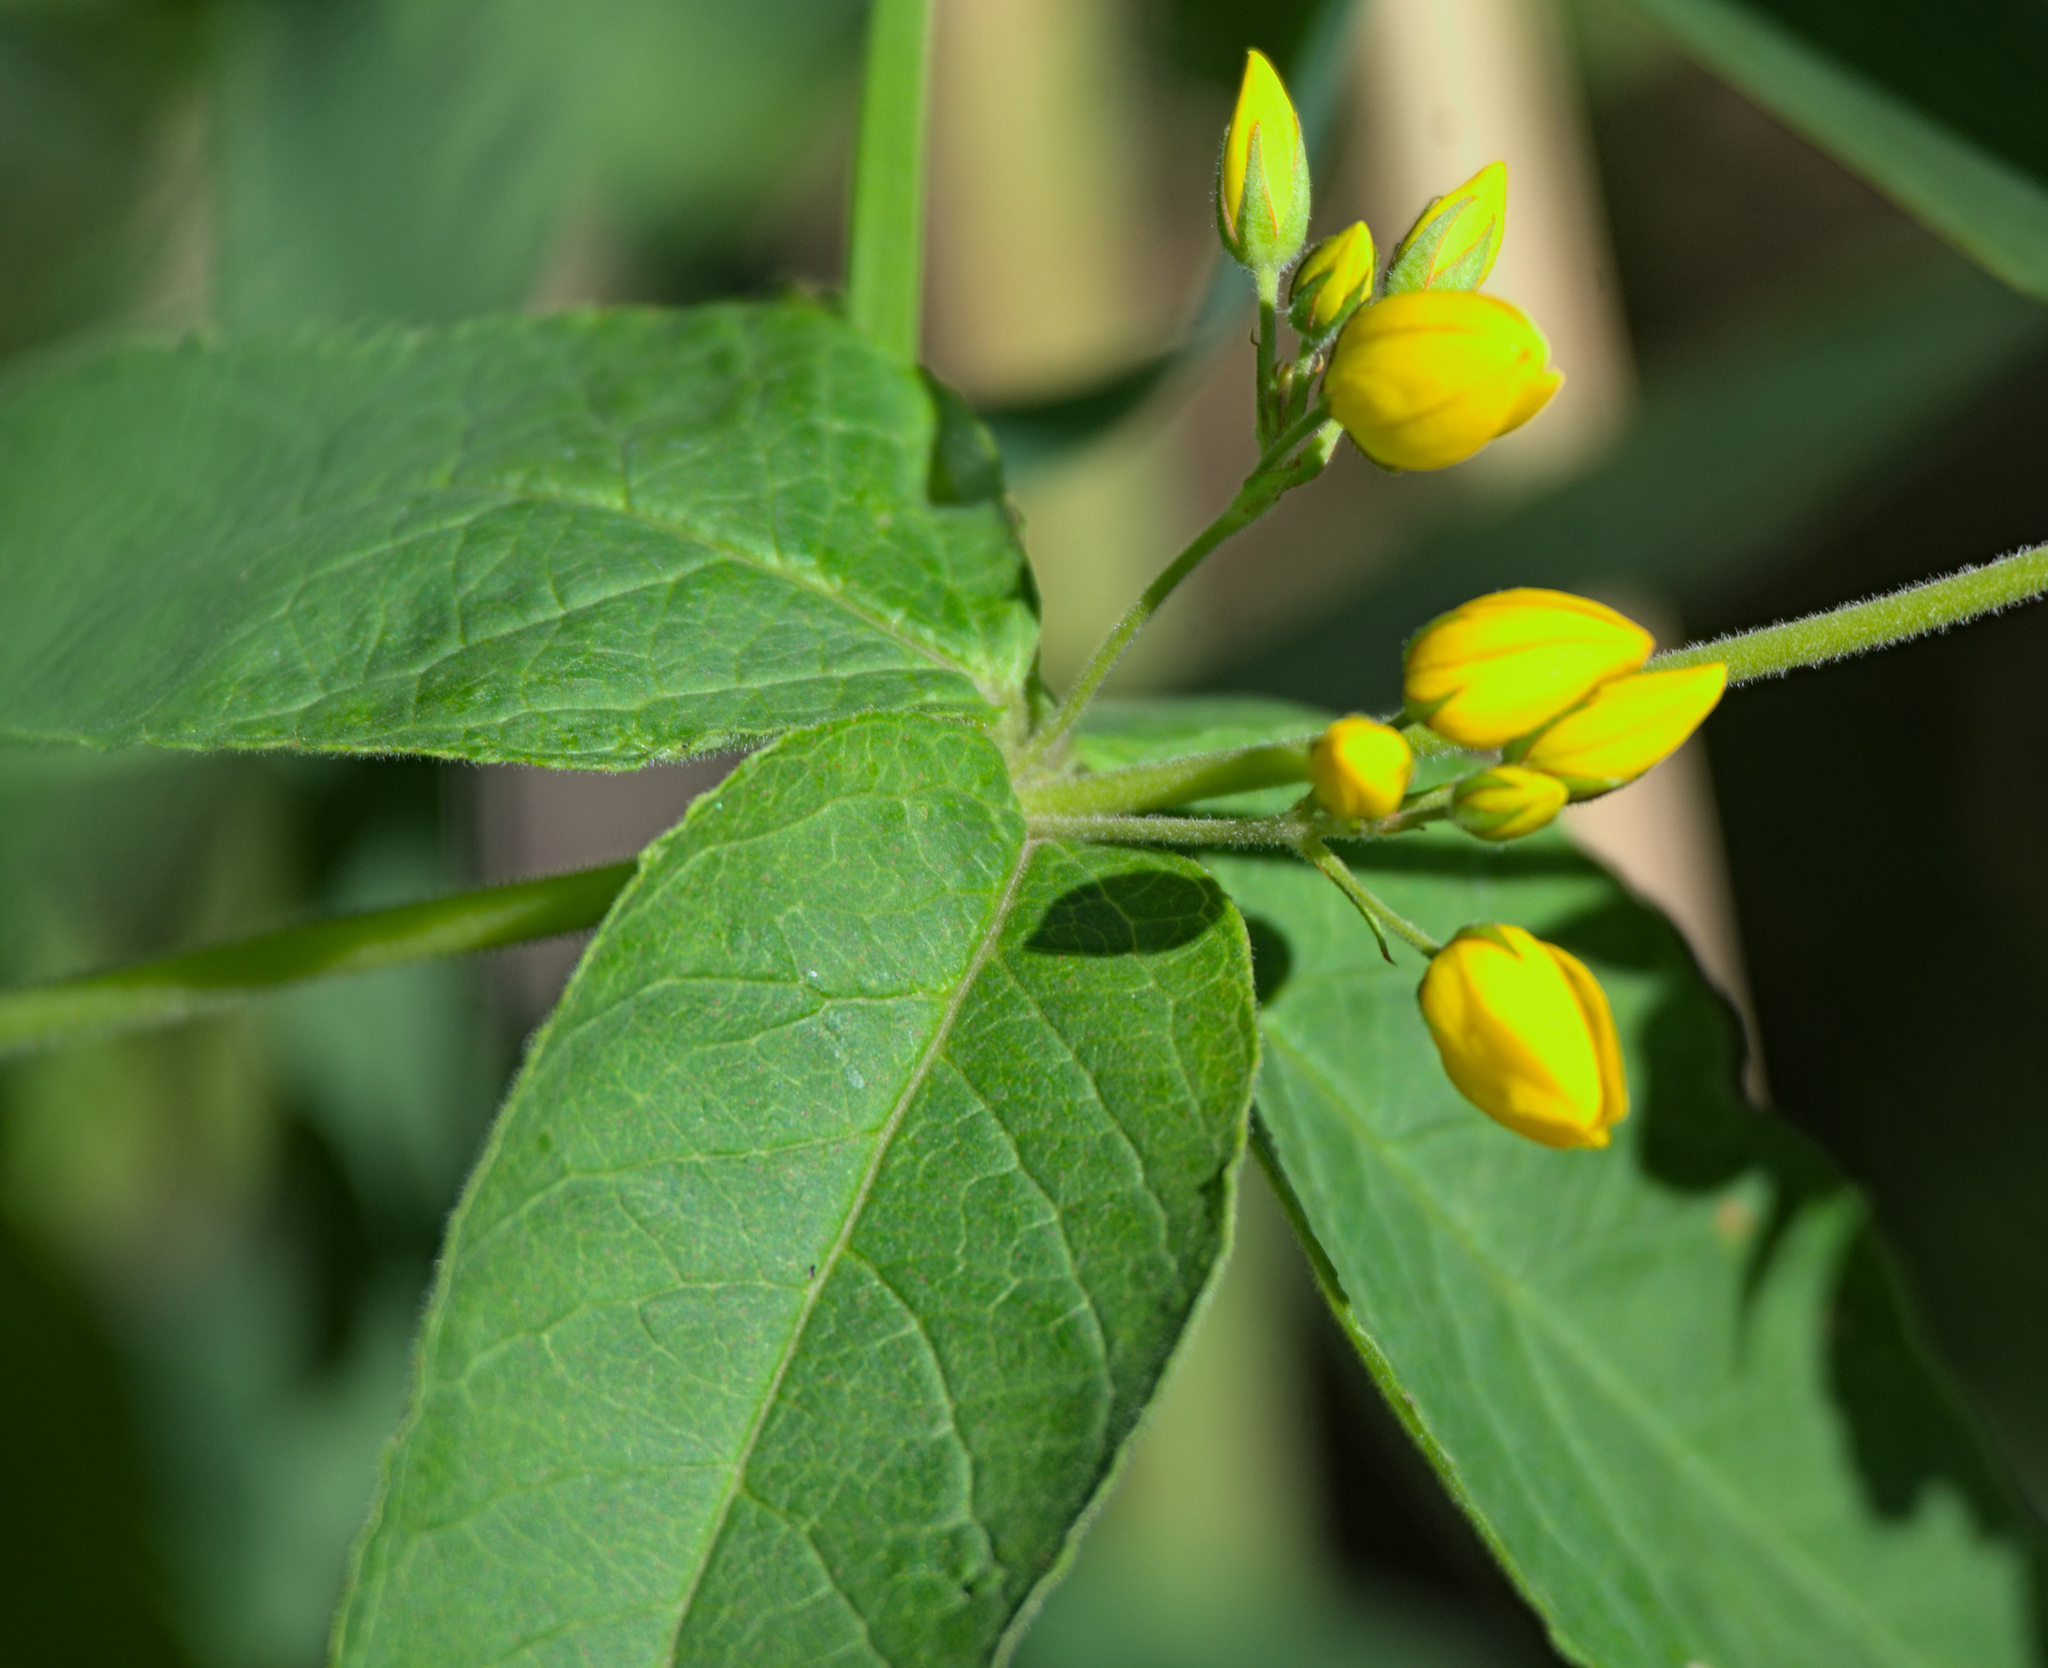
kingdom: Plantae
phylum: Tracheophyta
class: Magnoliopsida
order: Ericales
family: Primulaceae
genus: Lysimachia
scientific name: Lysimachia vulgaris
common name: Yellow loosestrife
